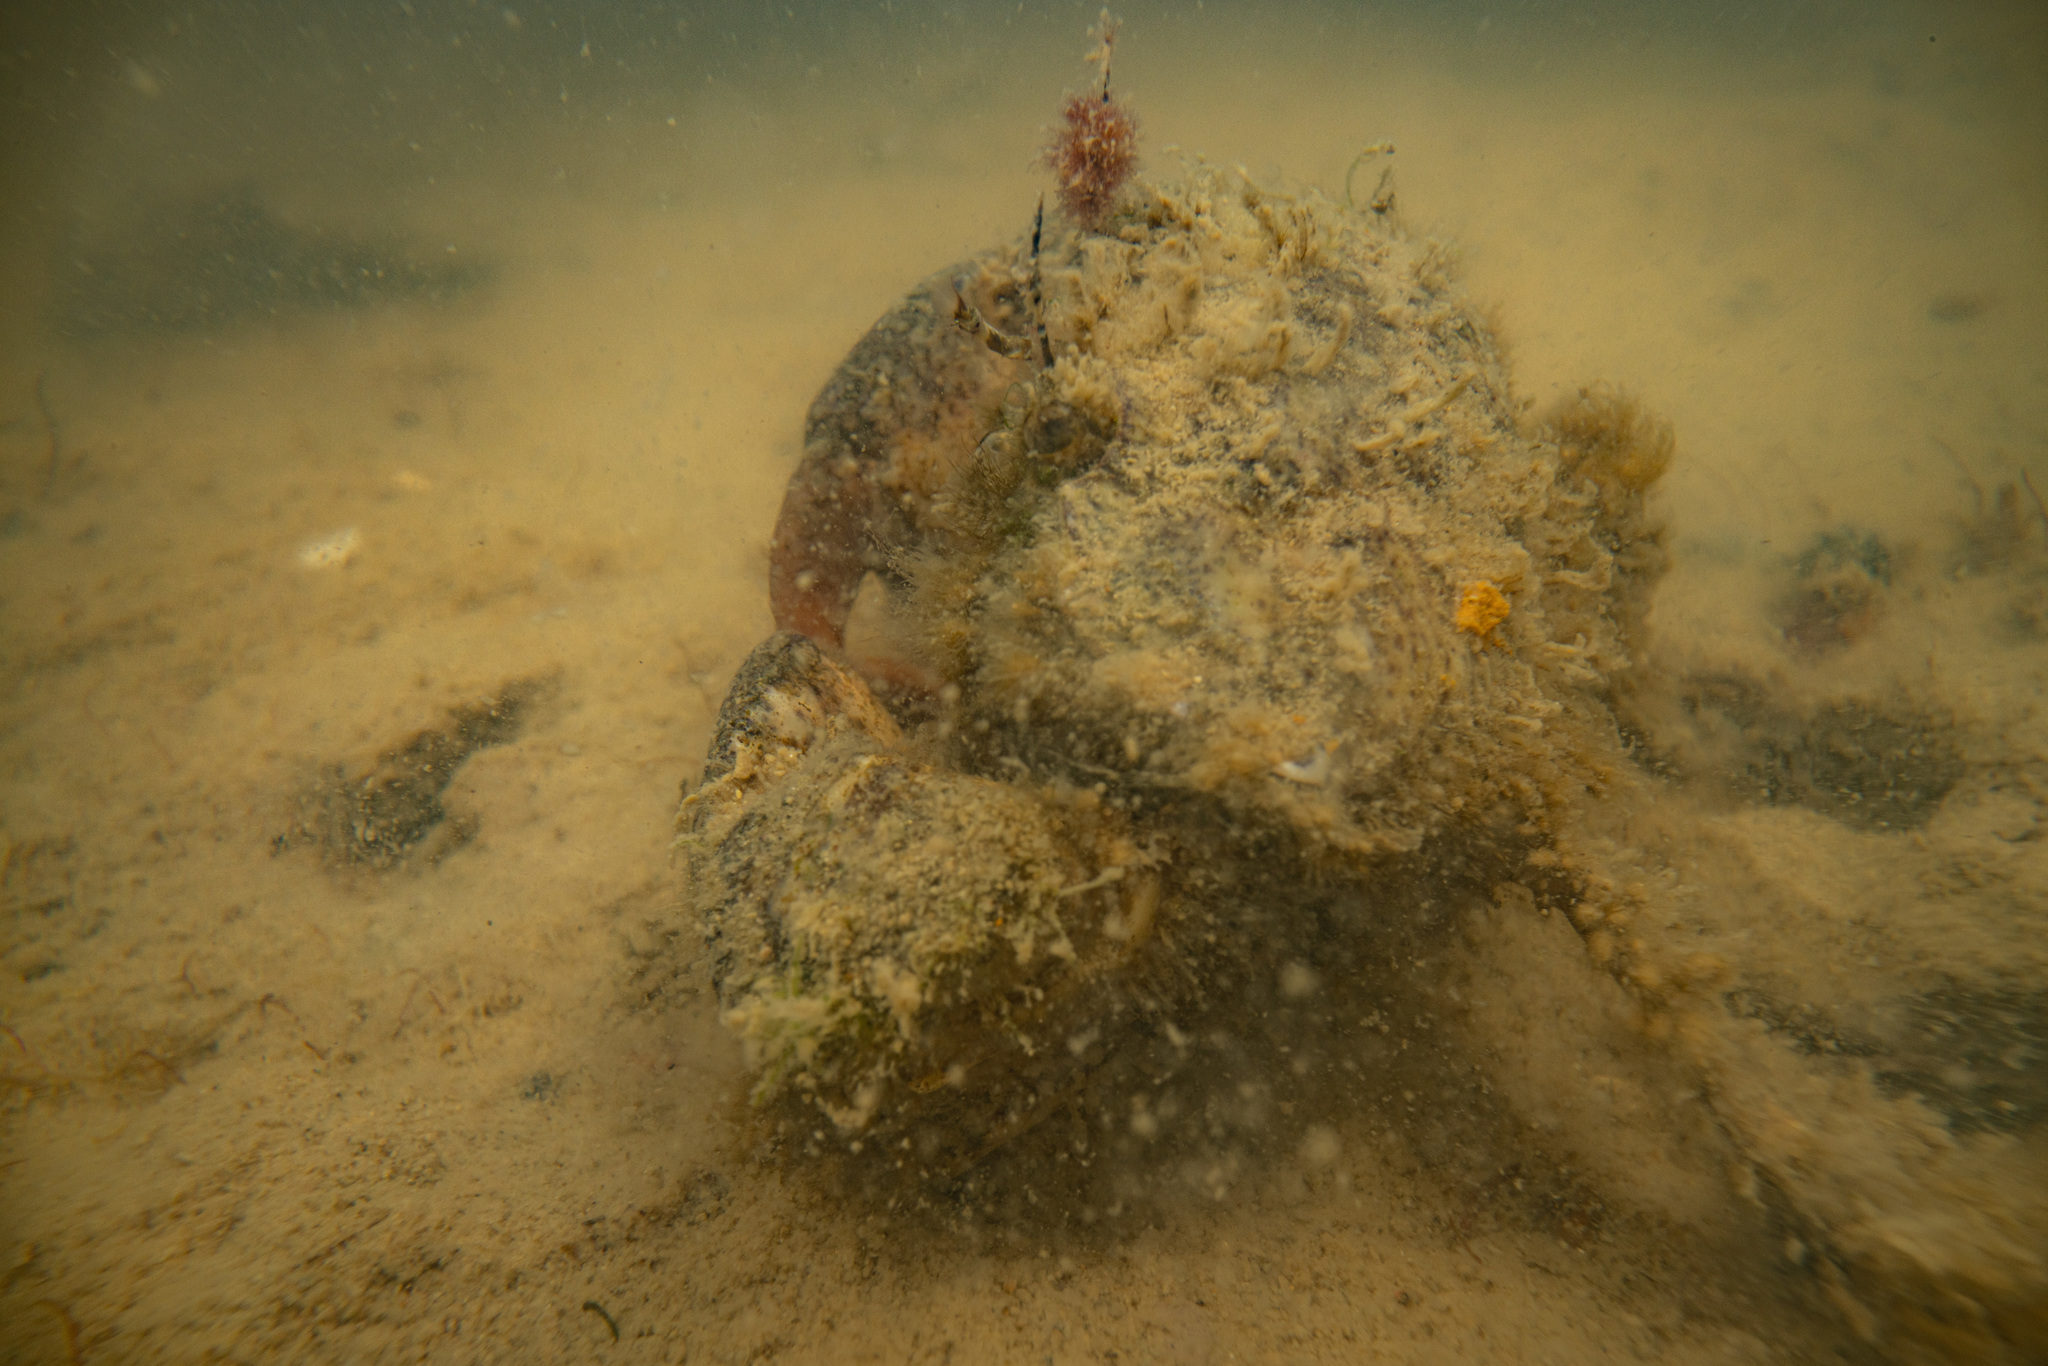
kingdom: Animalia
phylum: Arthropoda
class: Malacostraca
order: Decapoda
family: Pilumnidae
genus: Pilumnopeus
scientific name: Pilumnopeus serratifrons
